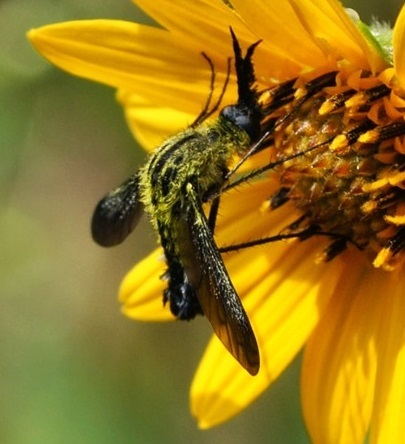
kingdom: Animalia
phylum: Arthropoda
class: Insecta
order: Diptera
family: Bombyliidae
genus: Lepidophora
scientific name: Lepidophora lutea
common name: Hunchback bee fly
